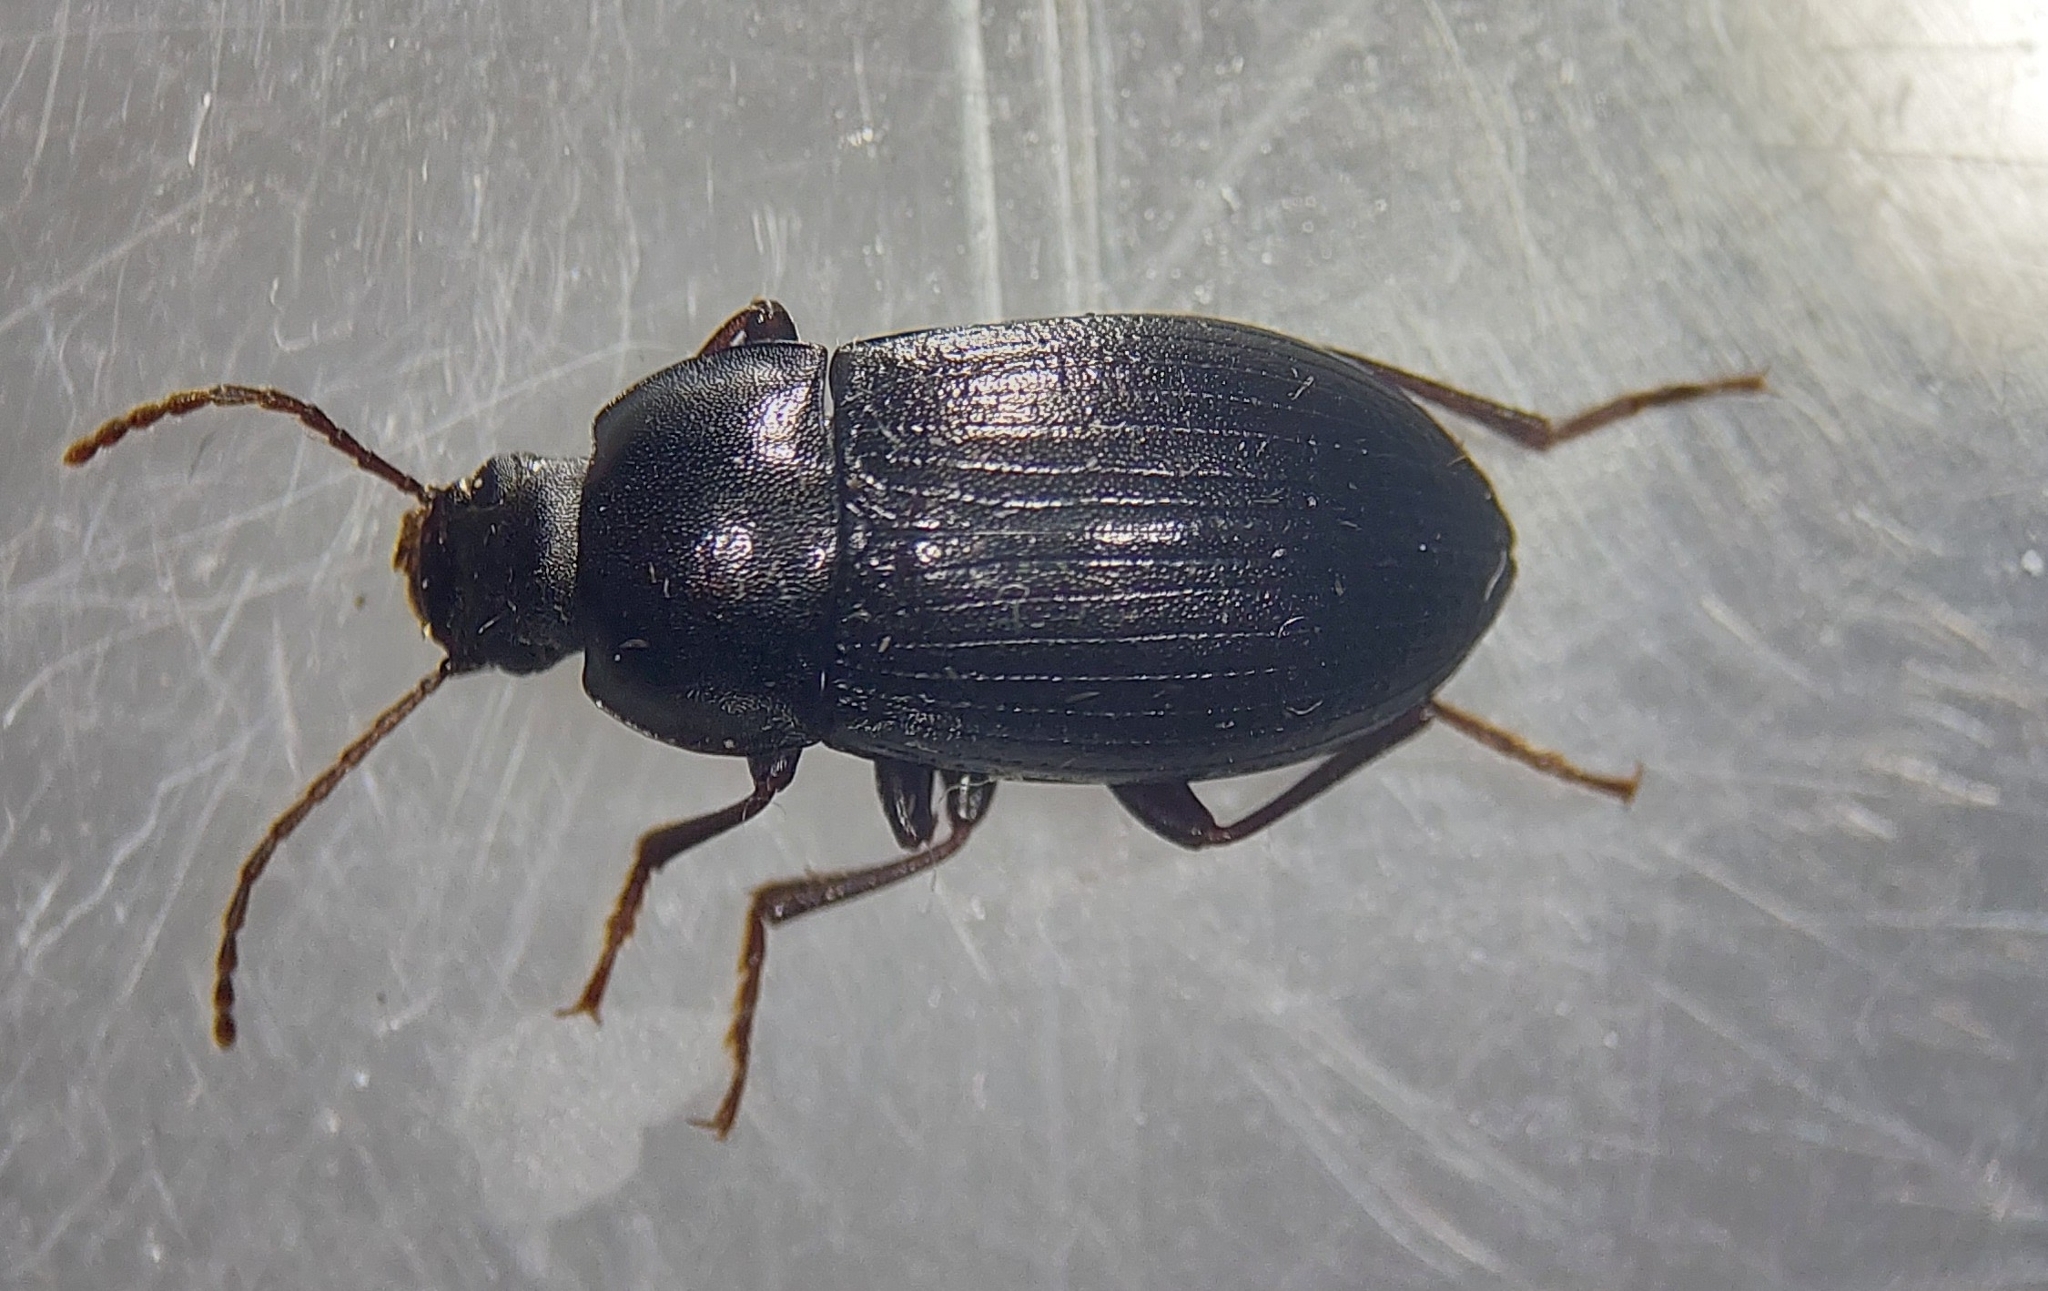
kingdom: Animalia
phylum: Arthropoda
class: Insecta
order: Coleoptera
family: Tenebrionidae
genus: Nalassus
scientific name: Nalassus laevioctostriatus
